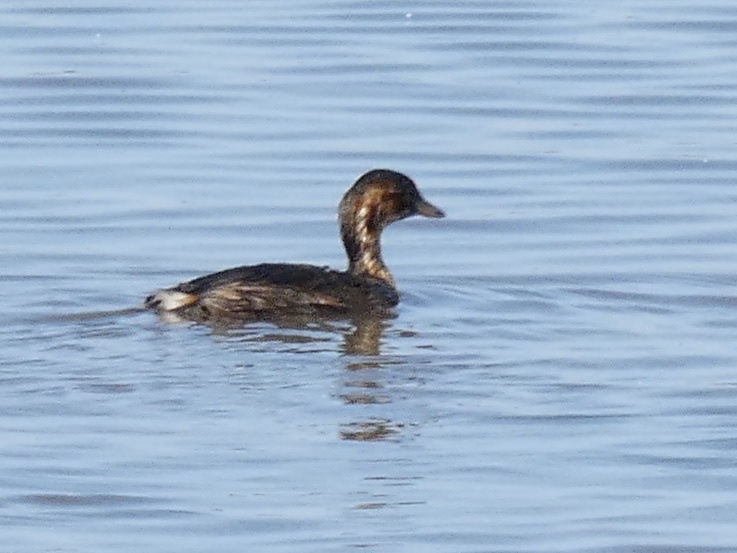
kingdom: Animalia
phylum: Chordata
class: Aves
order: Podicipediformes
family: Podicipedidae
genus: Tachybaptus
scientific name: Tachybaptus ruficollis
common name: Little grebe
